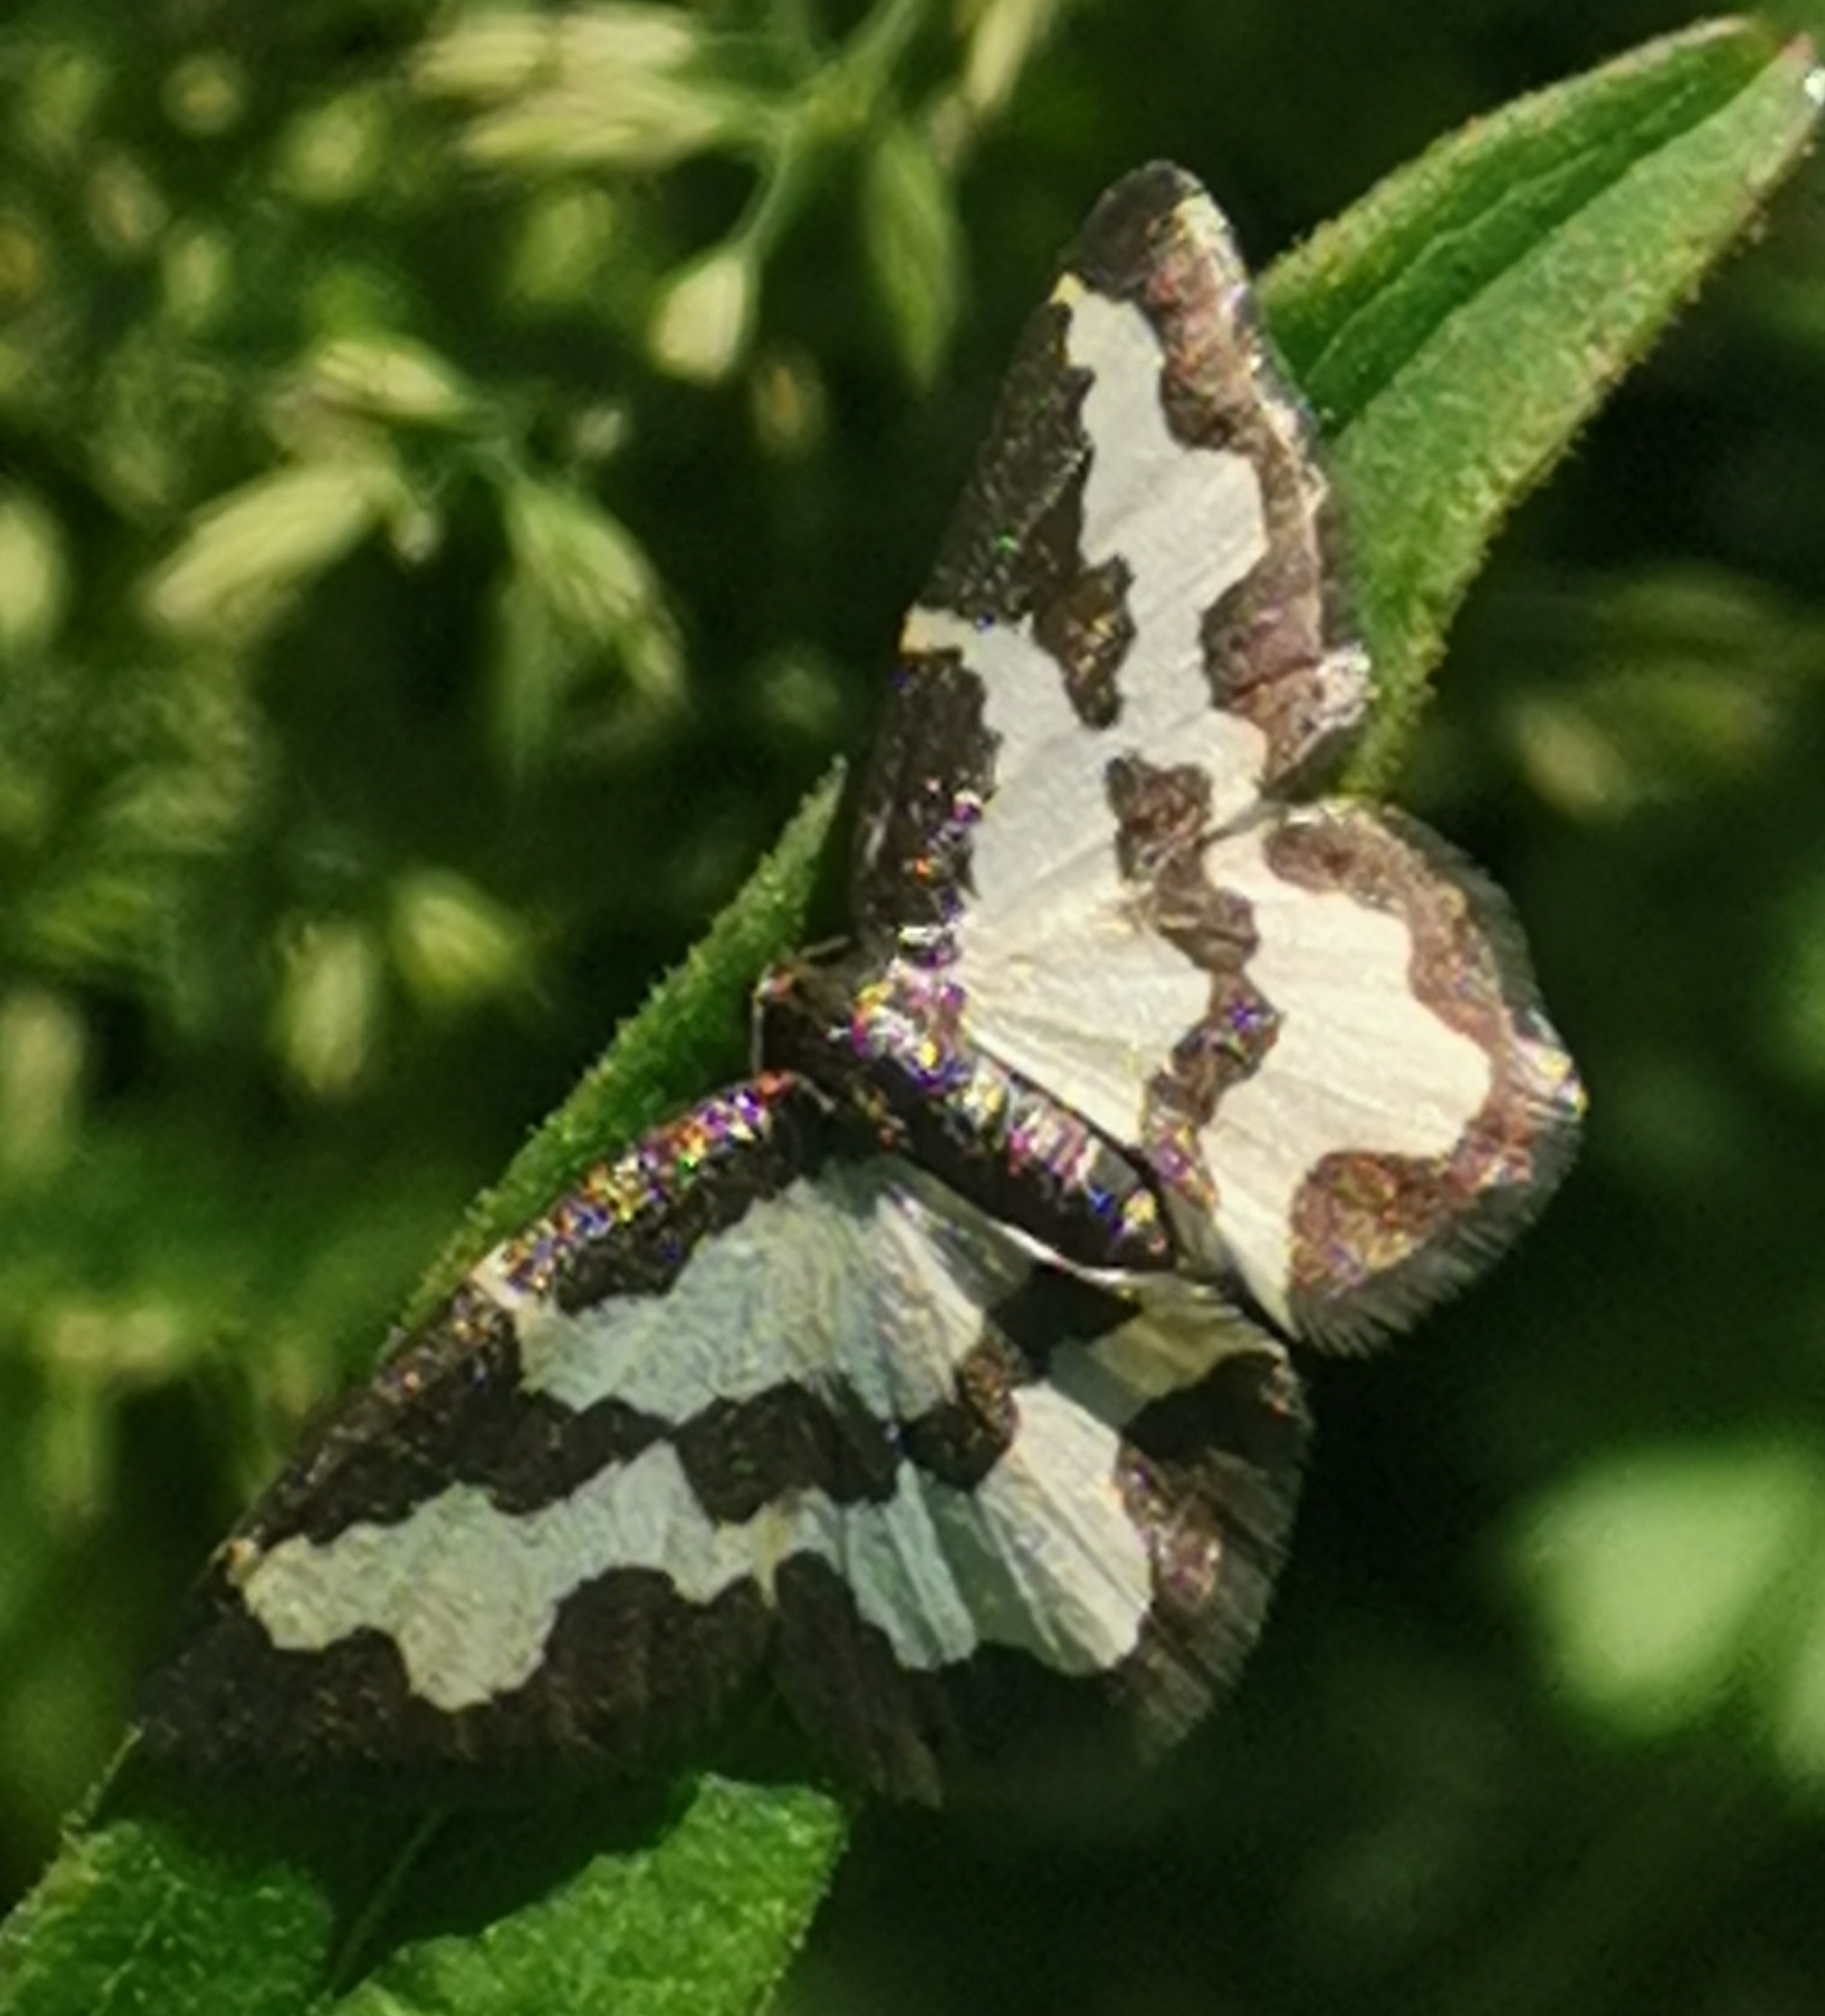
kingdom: Animalia
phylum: Arthropoda
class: Insecta
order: Lepidoptera
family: Geometridae
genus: Lomaspilis
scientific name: Lomaspilis marginata
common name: Clouded border
